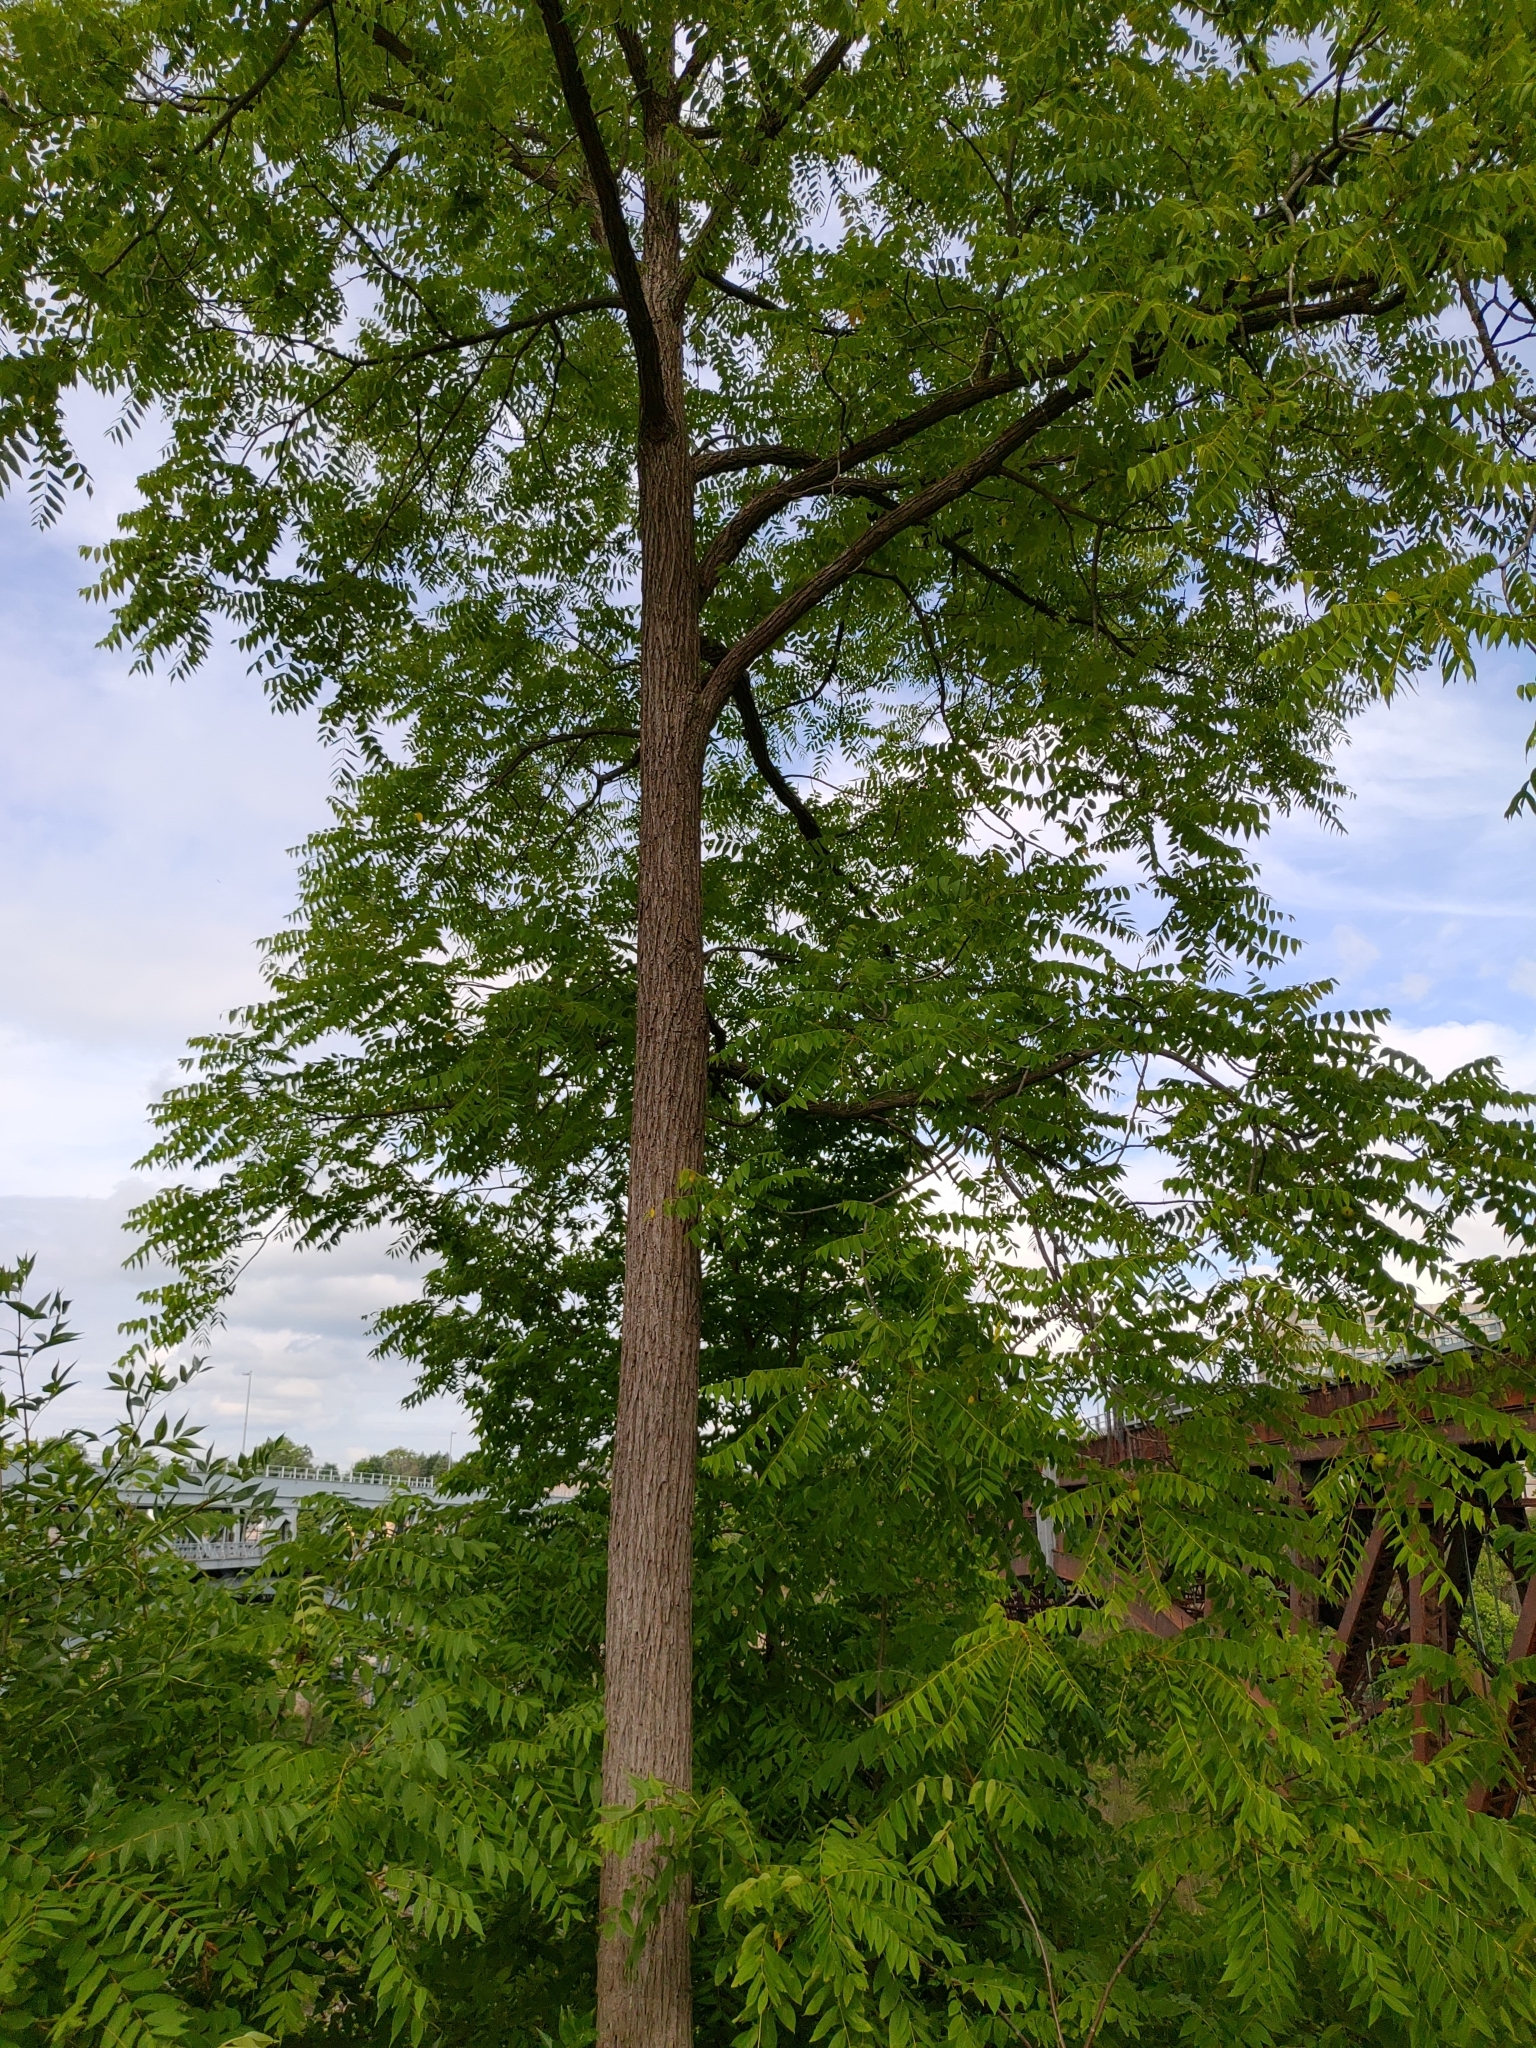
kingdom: Plantae
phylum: Tracheophyta
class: Magnoliopsida
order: Fagales
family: Juglandaceae
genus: Juglans
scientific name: Juglans nigra
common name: Black walnut
